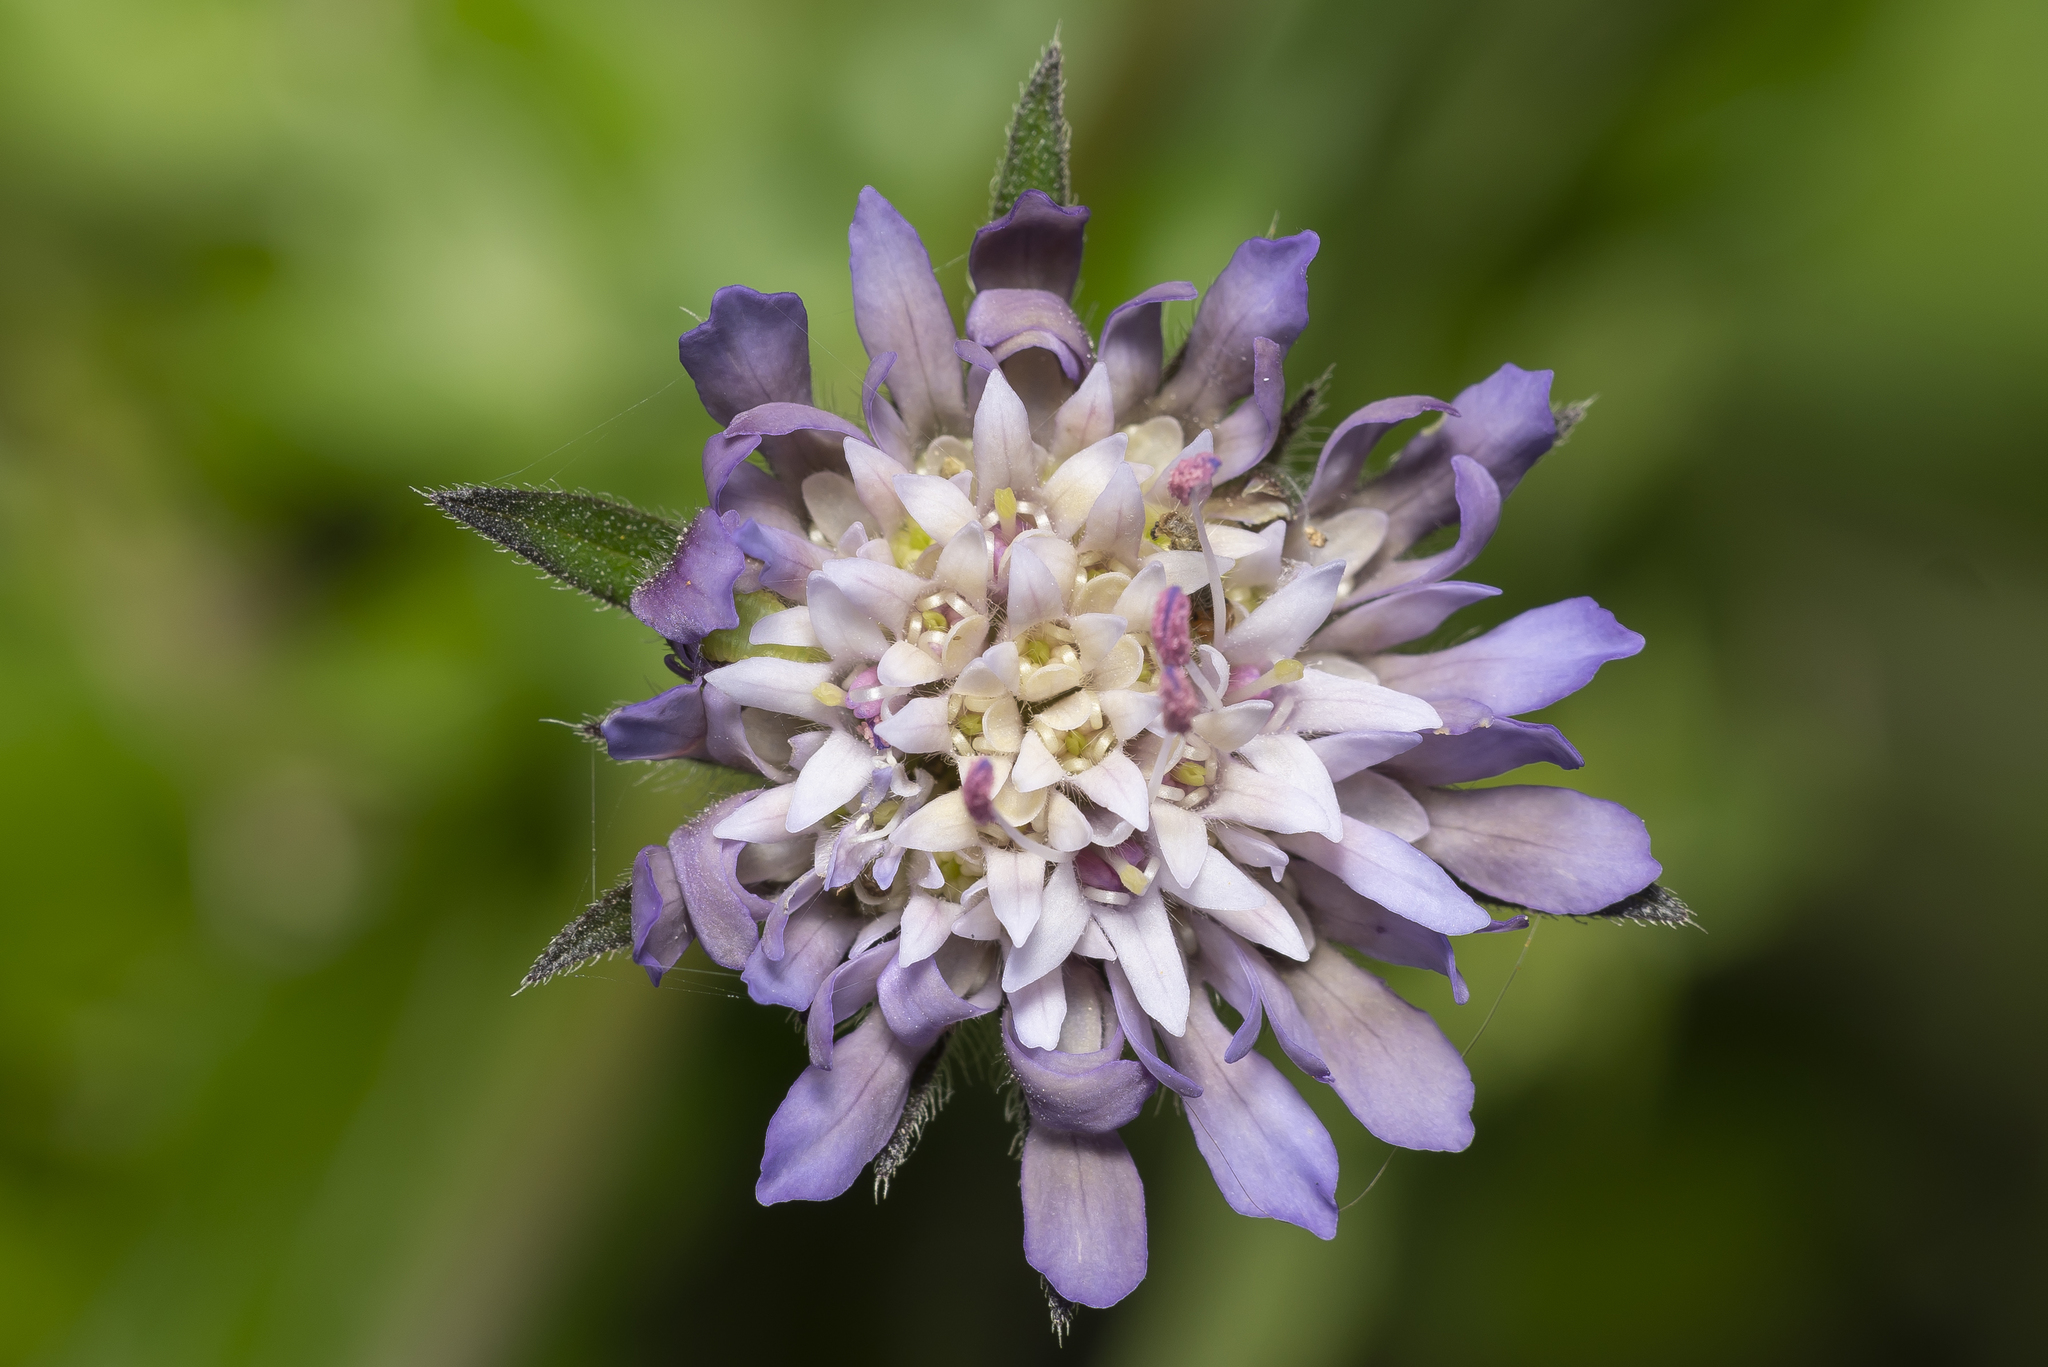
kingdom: Plantae
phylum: Tracheophyta
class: Magnoliopsida
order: Dipsacales
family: Caprifoliaceae
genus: Knautia
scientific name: Knautia integrifolia
